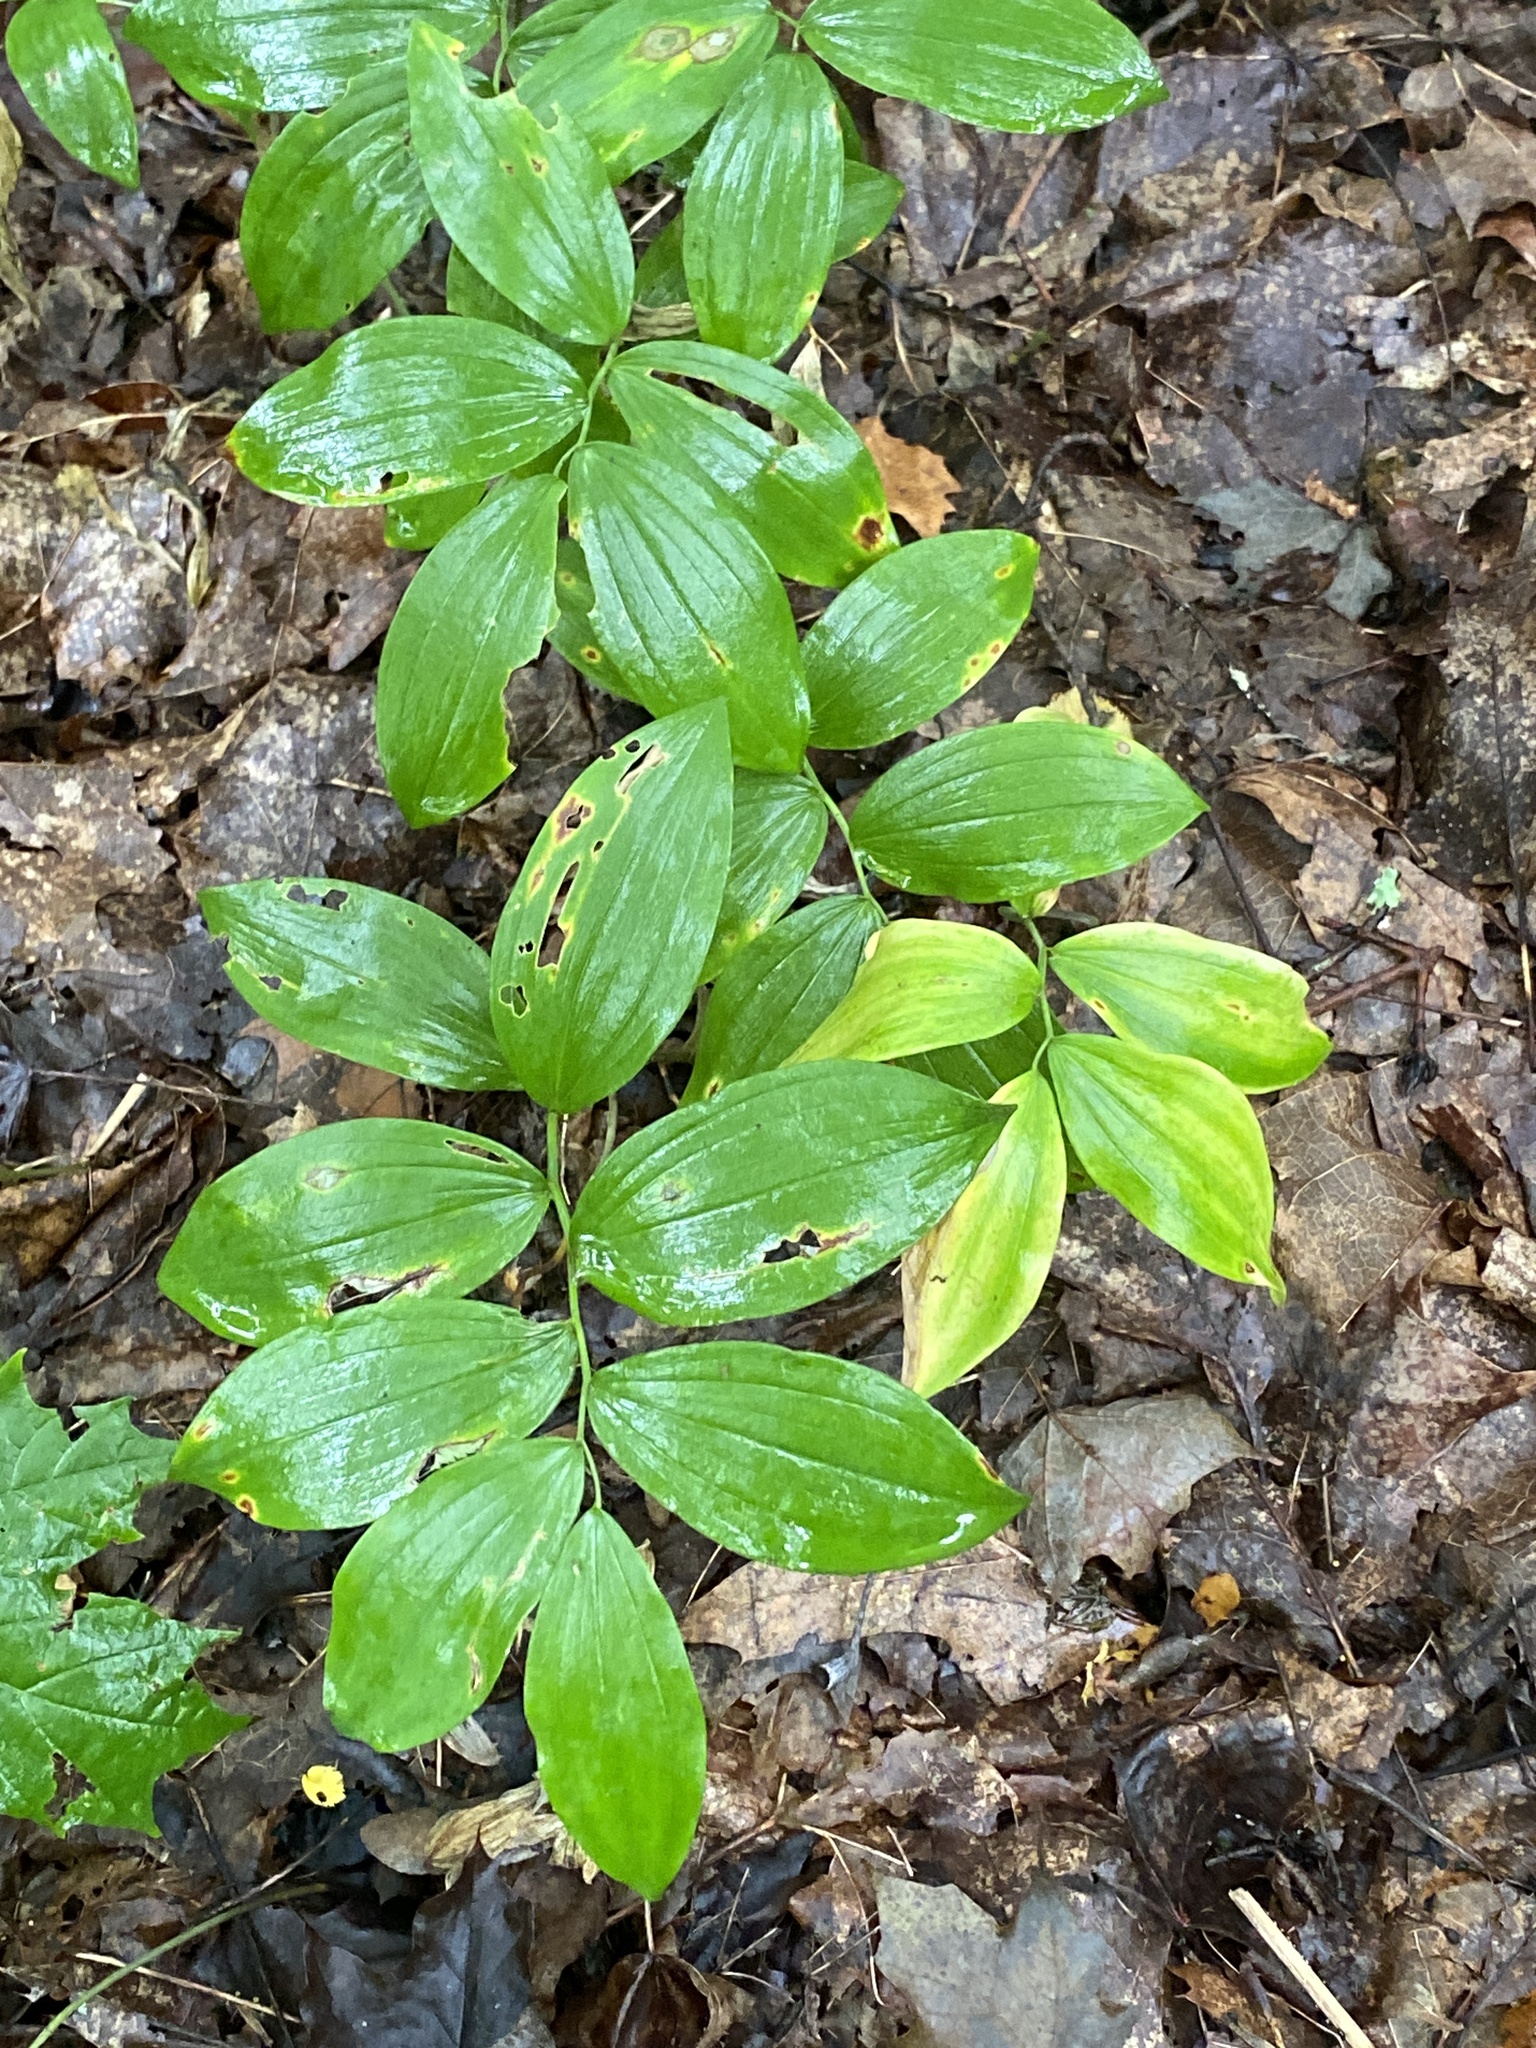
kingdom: Plantae
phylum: Tracheophyta
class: Liliopsida
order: Asparagales
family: Asparagaceae
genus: Maianthemum
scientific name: Maianthemum racemosum
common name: False spikenard
